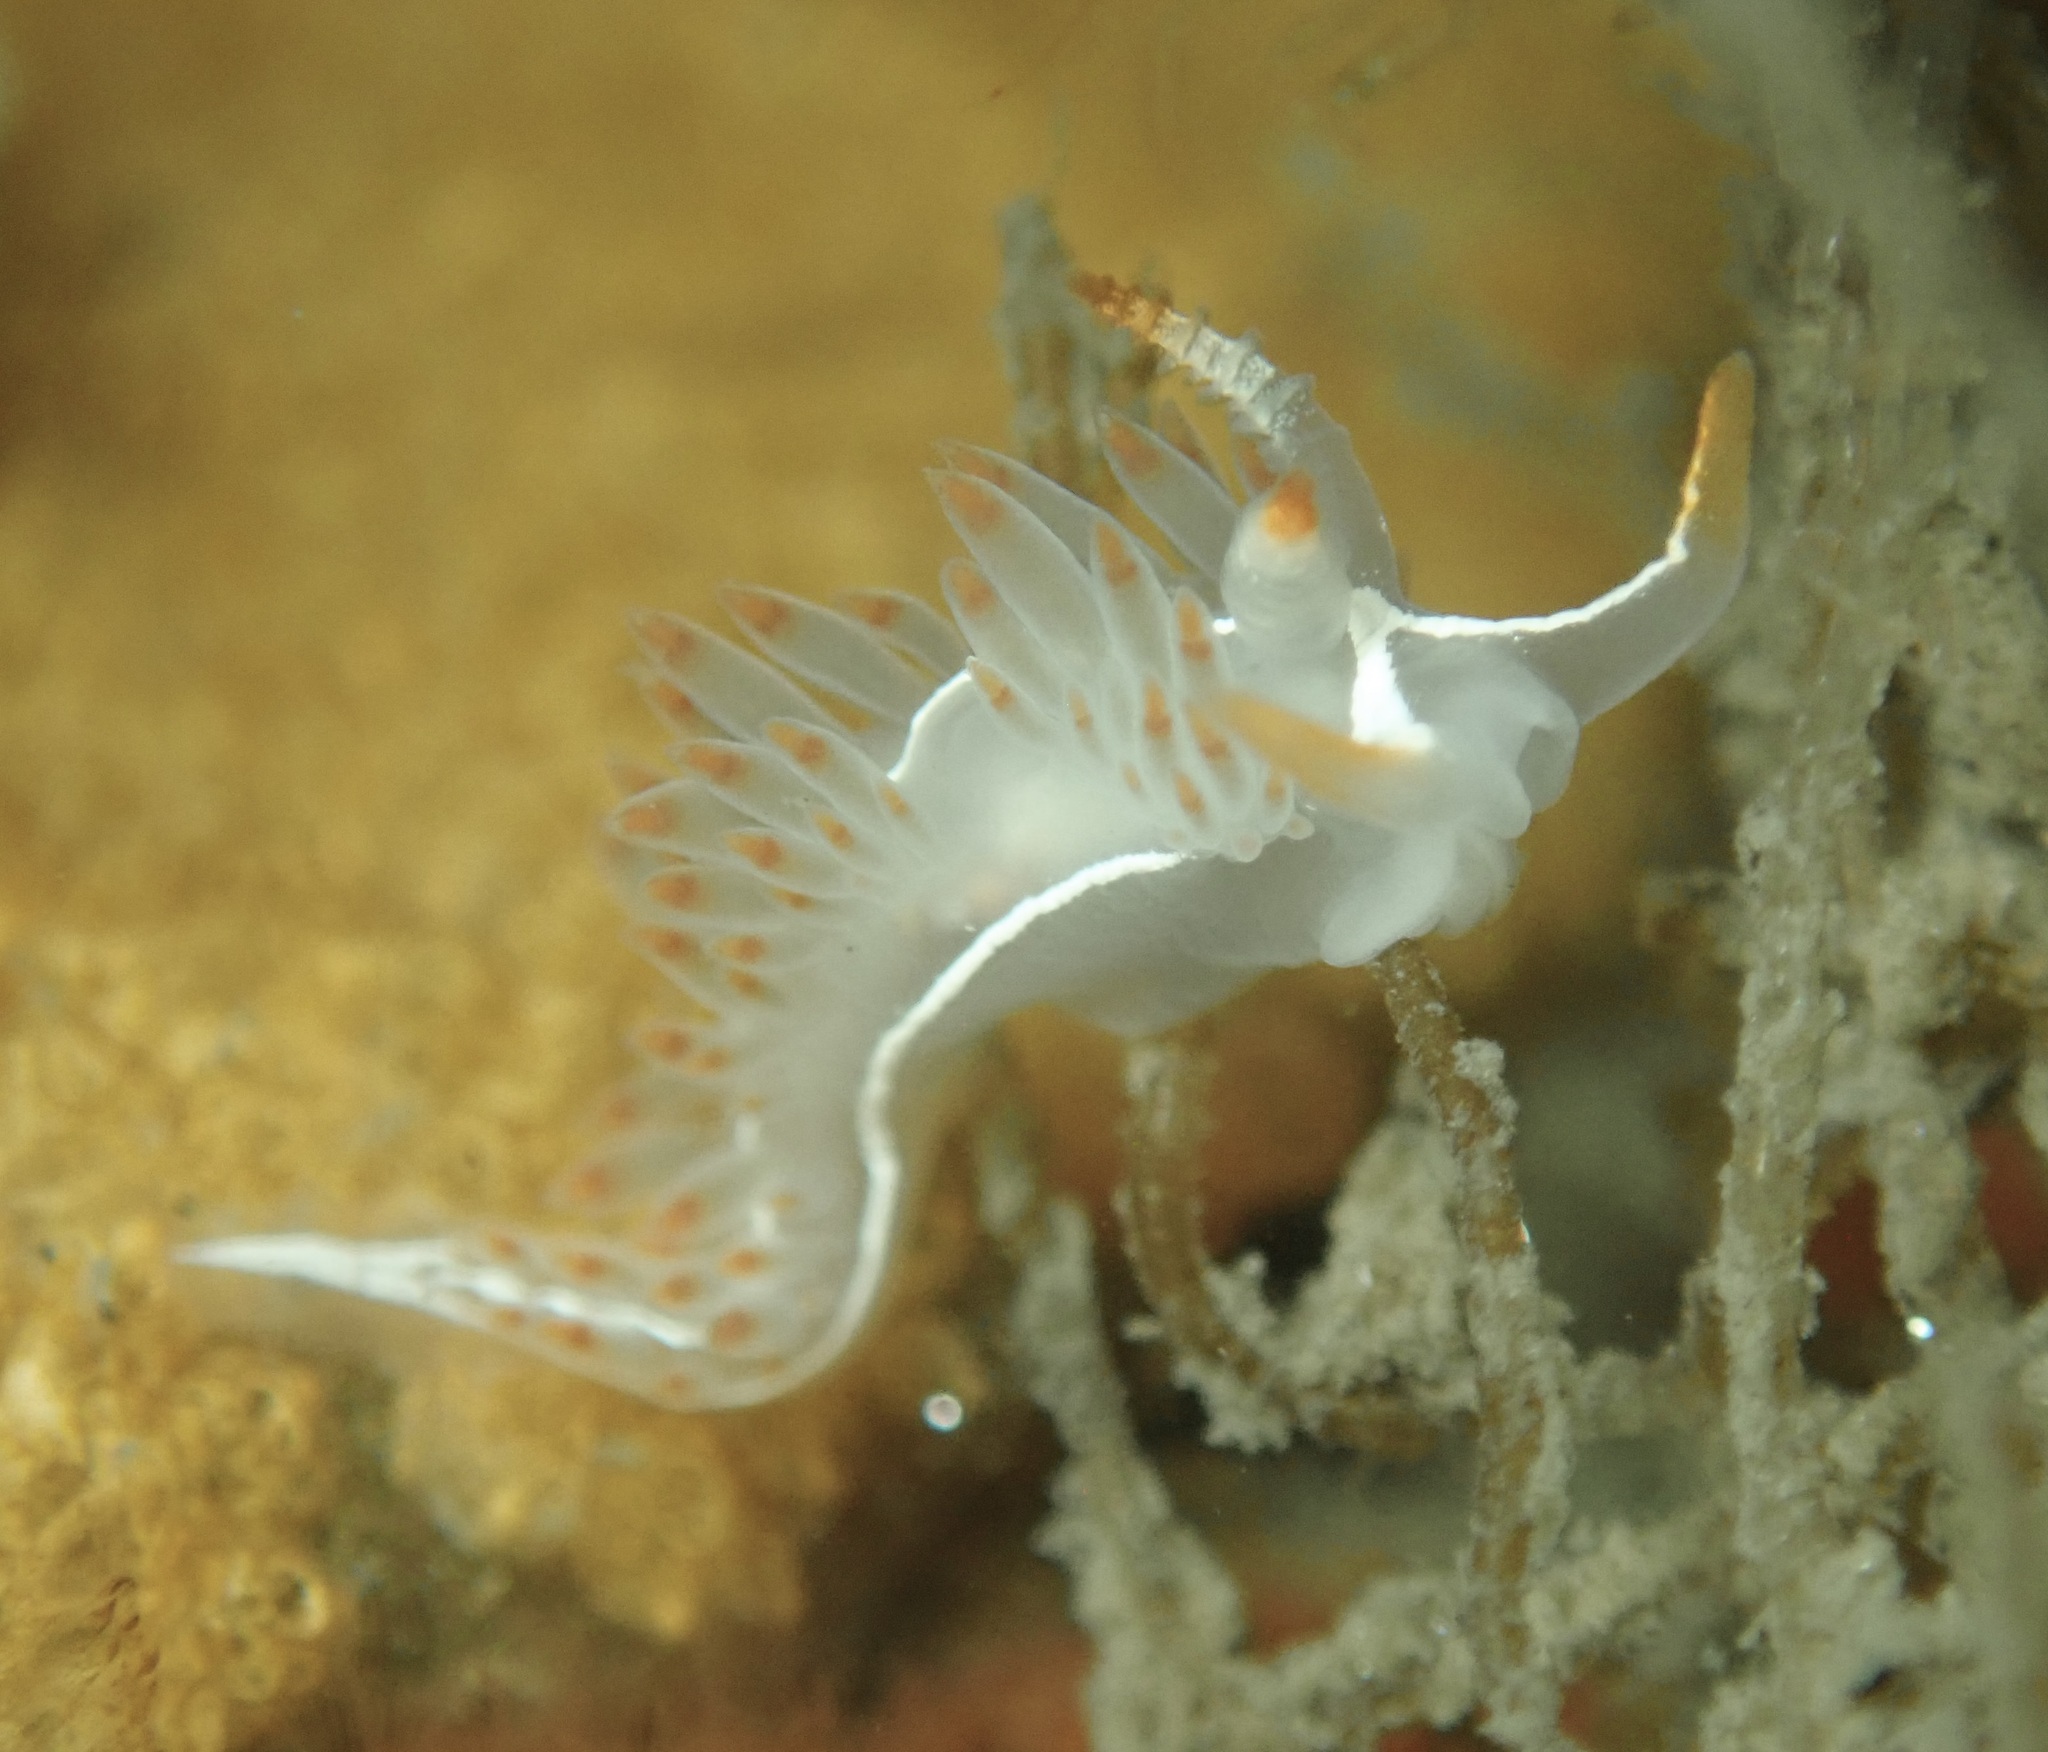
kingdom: Animalia
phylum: Mollusca
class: Gastropoda
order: Nudibranchia
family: Coryphellidae
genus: Coryphella
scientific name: Coryphella trilineata
